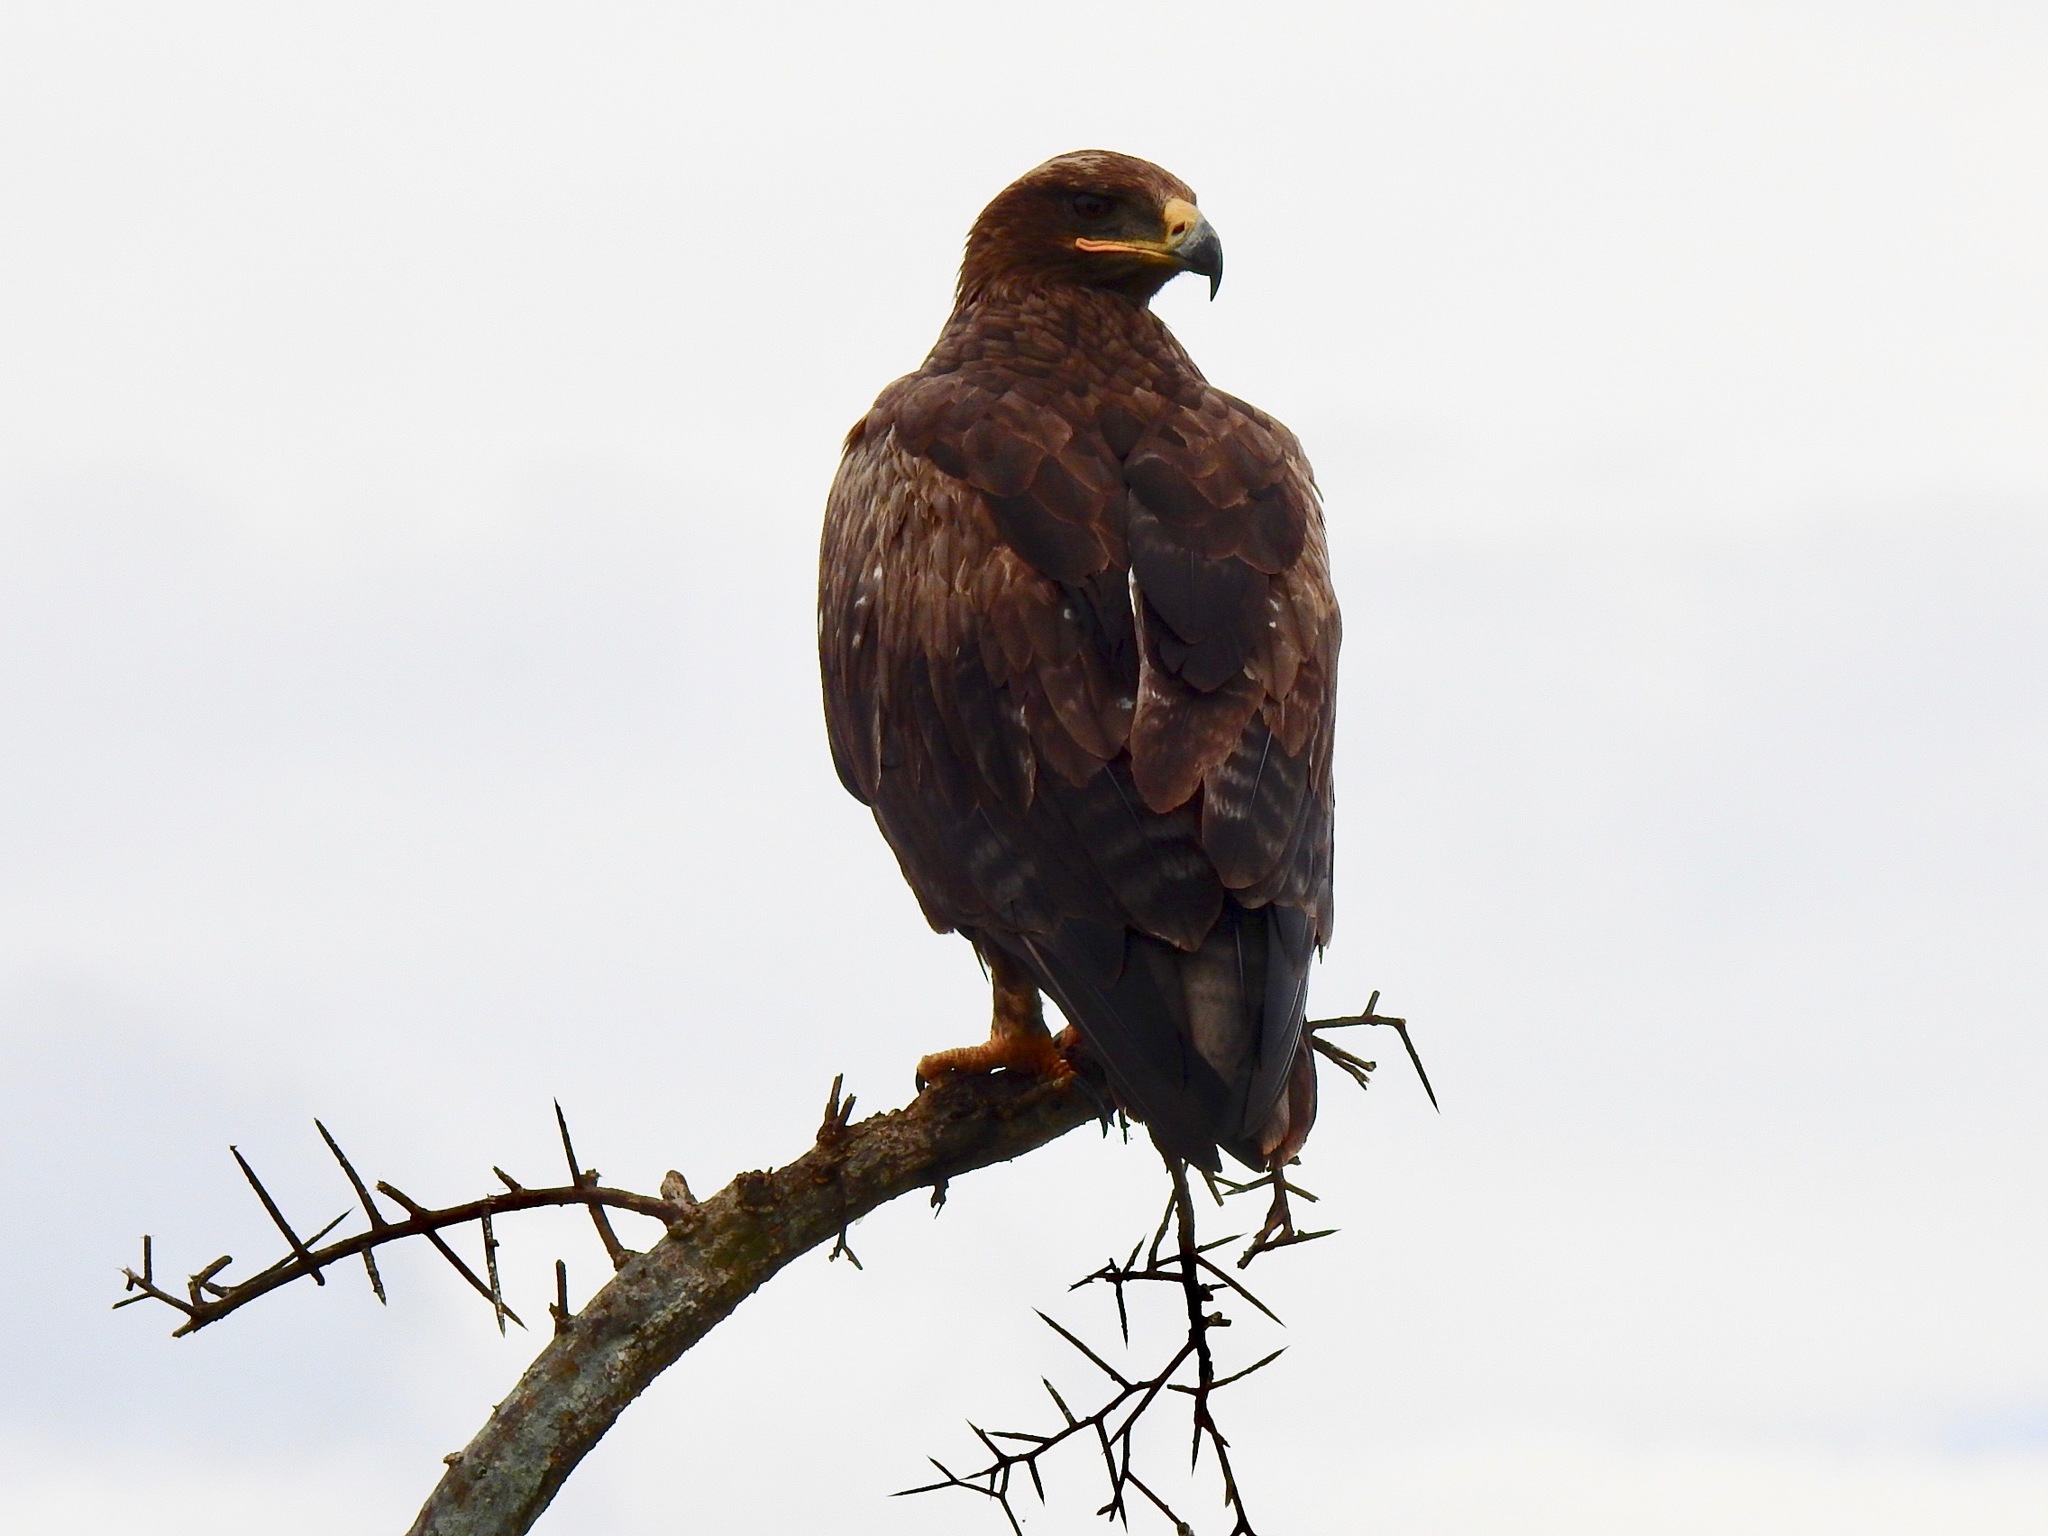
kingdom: Animalia
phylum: Chordata
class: Aves
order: Accipitriformes
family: Accipitridae
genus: Aquila
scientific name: Aquila rapax
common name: Tawny eagle
